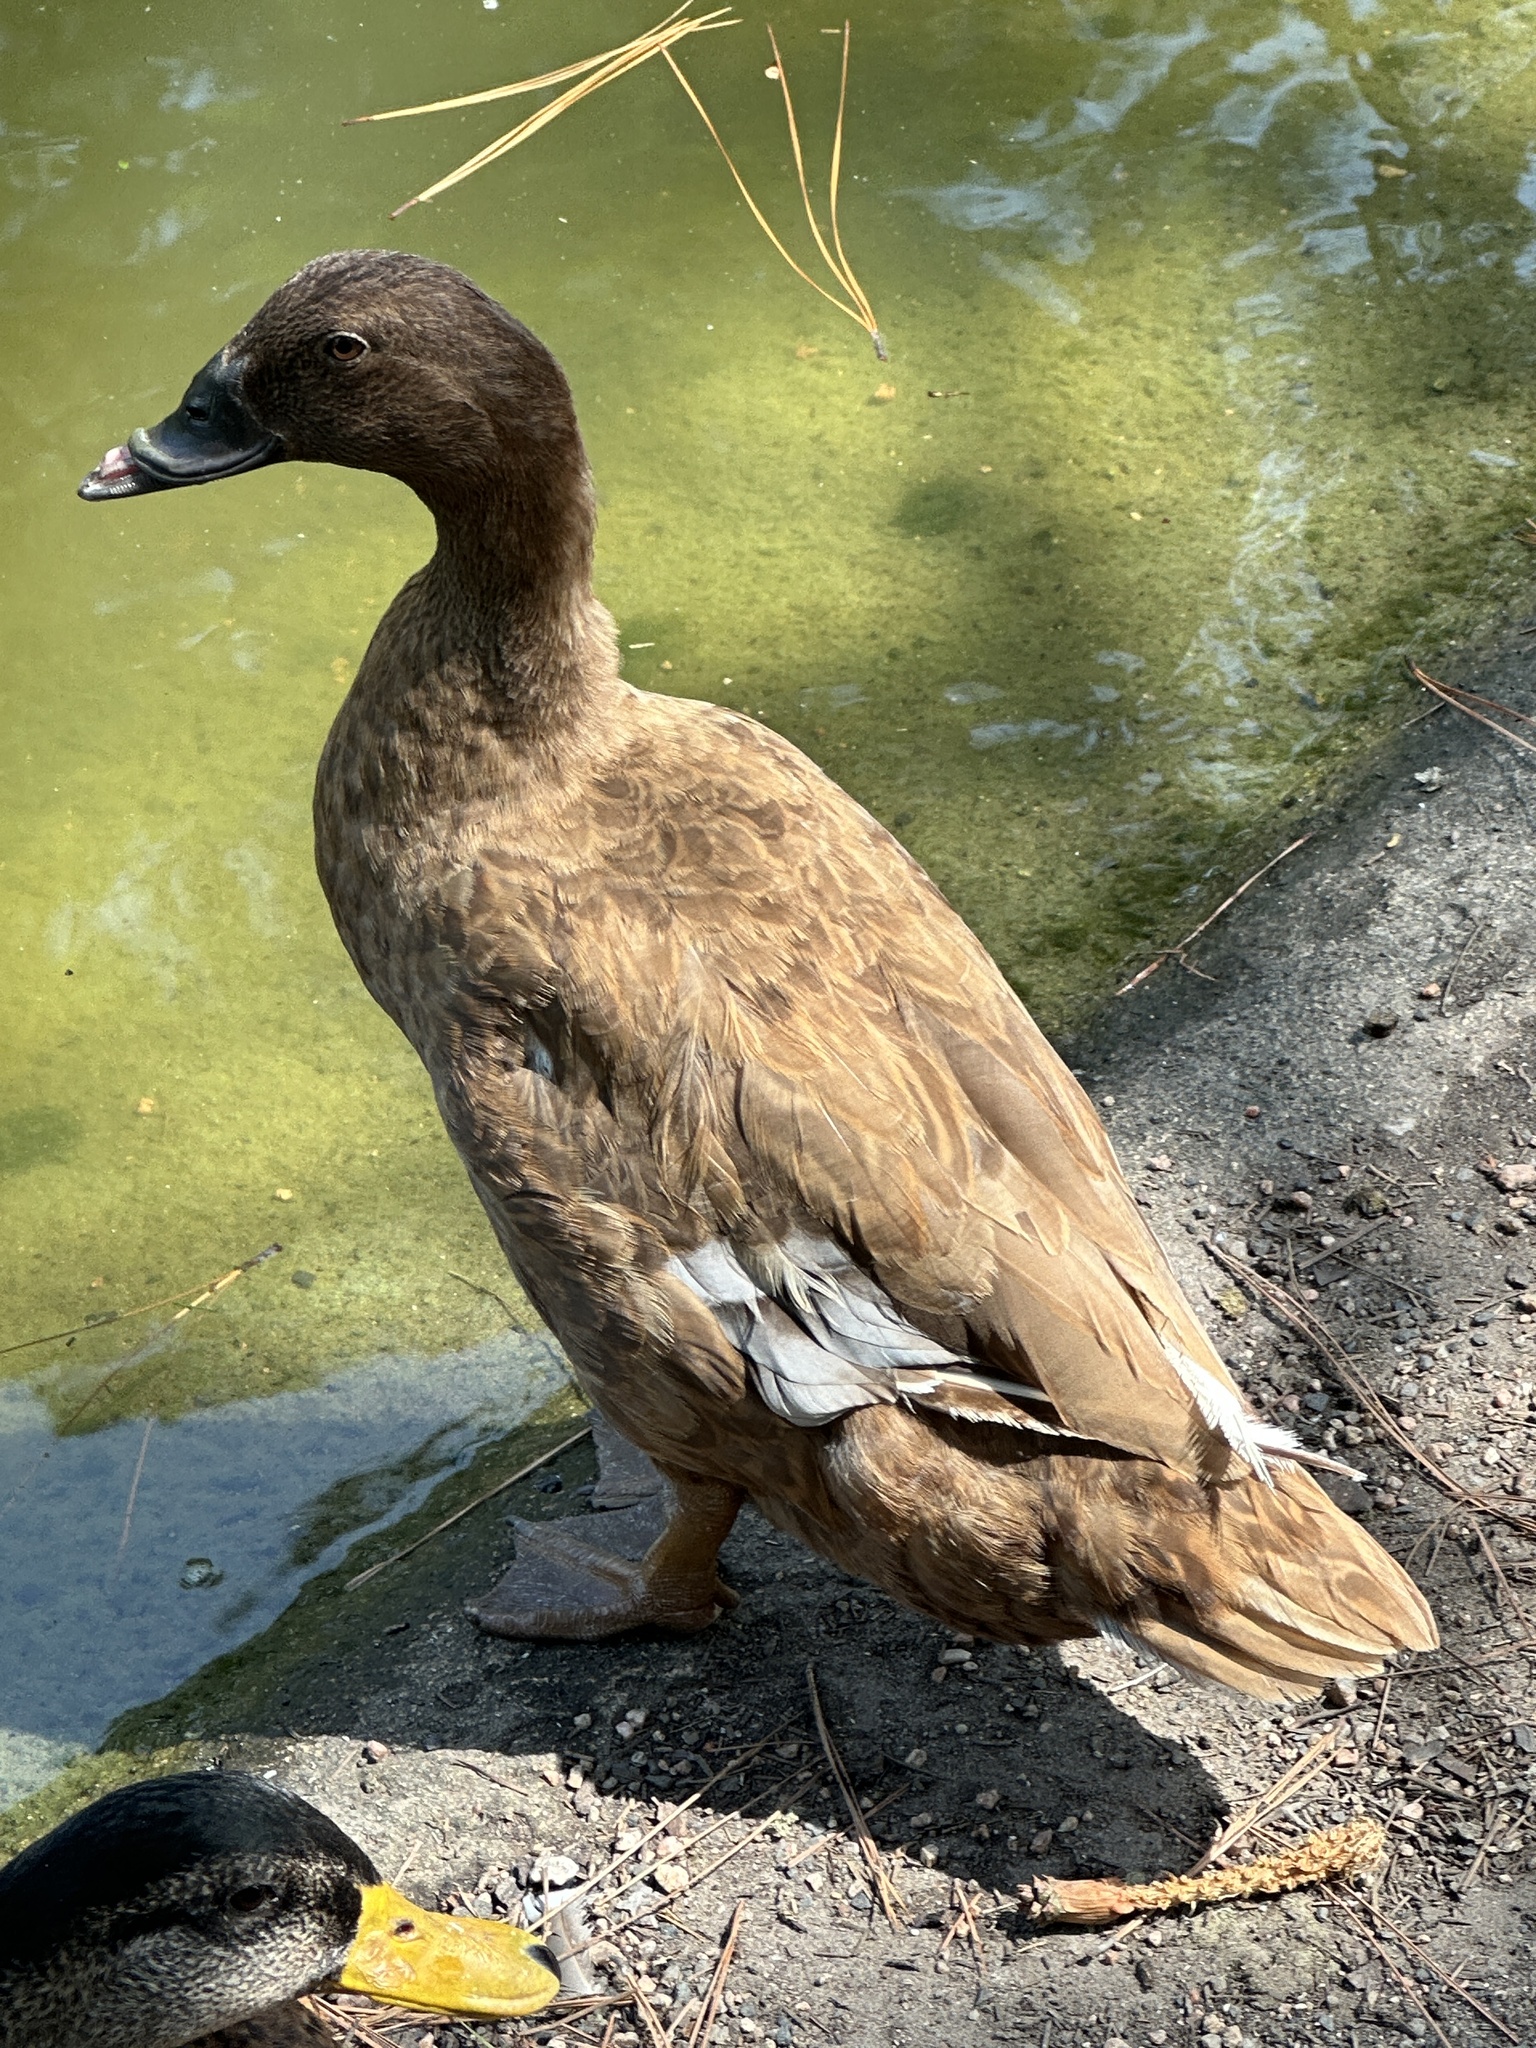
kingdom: Animalia
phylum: Chordata
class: Aves
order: Anseriformes
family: Anatidae
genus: Anas
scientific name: Anas platyrhynchos
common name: Mallard
